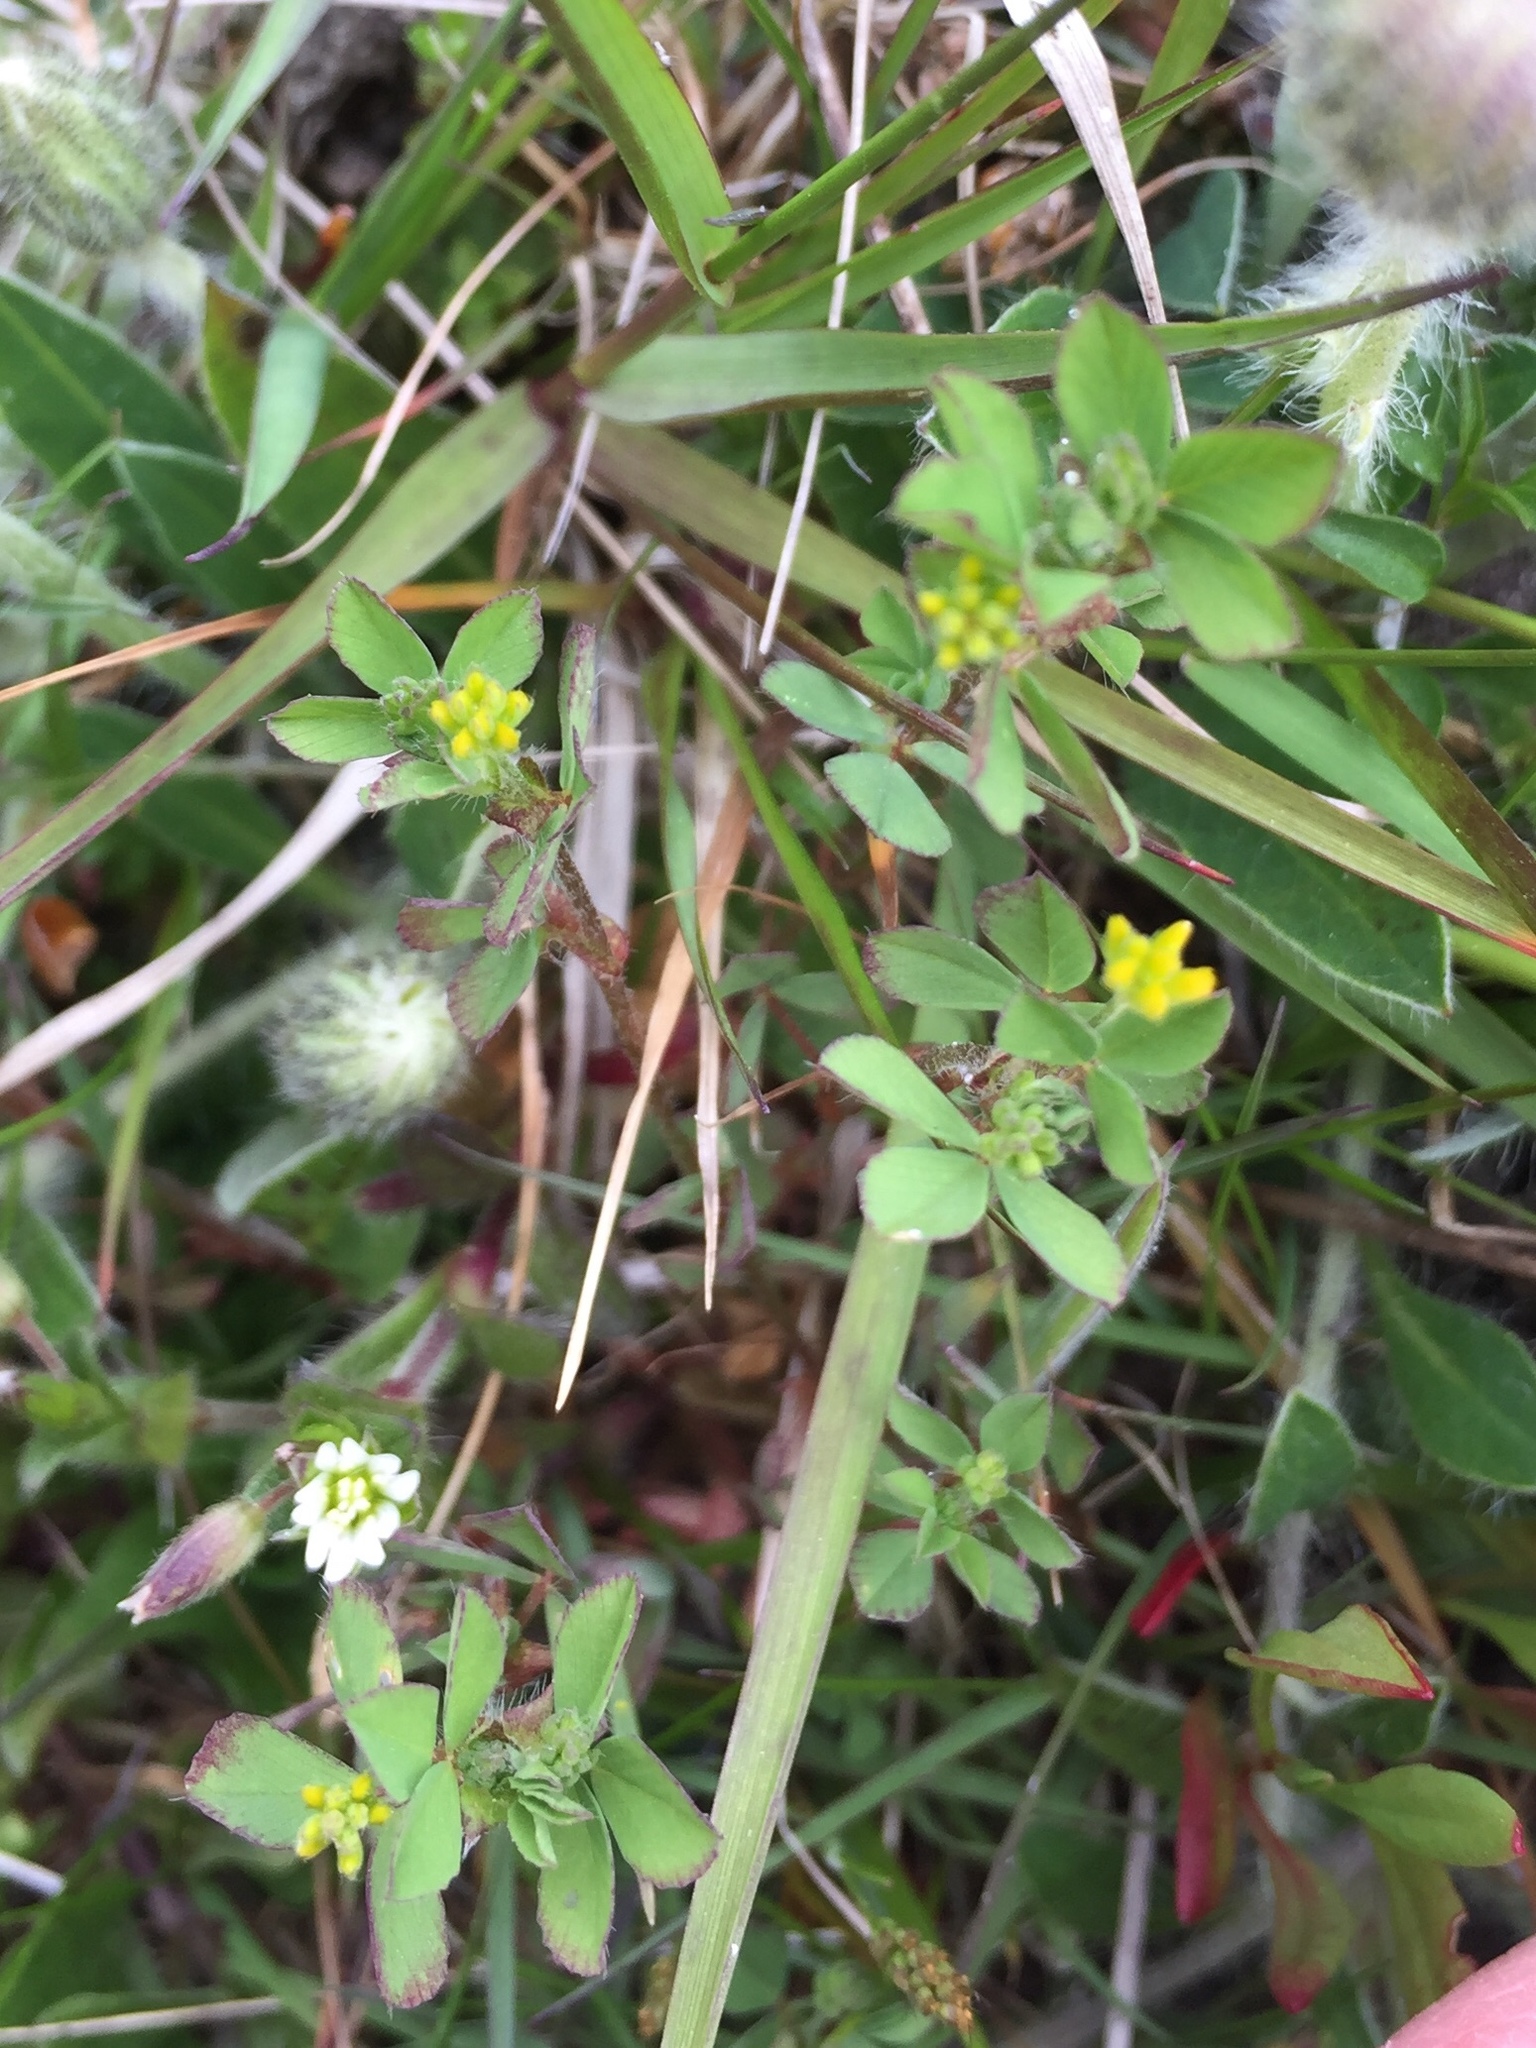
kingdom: Plantae
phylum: Tracheophyta
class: Magnoliopsida
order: Fabales
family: Fabaceae
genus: Trifolium
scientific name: Trifolium dubium
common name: Suckling clover
